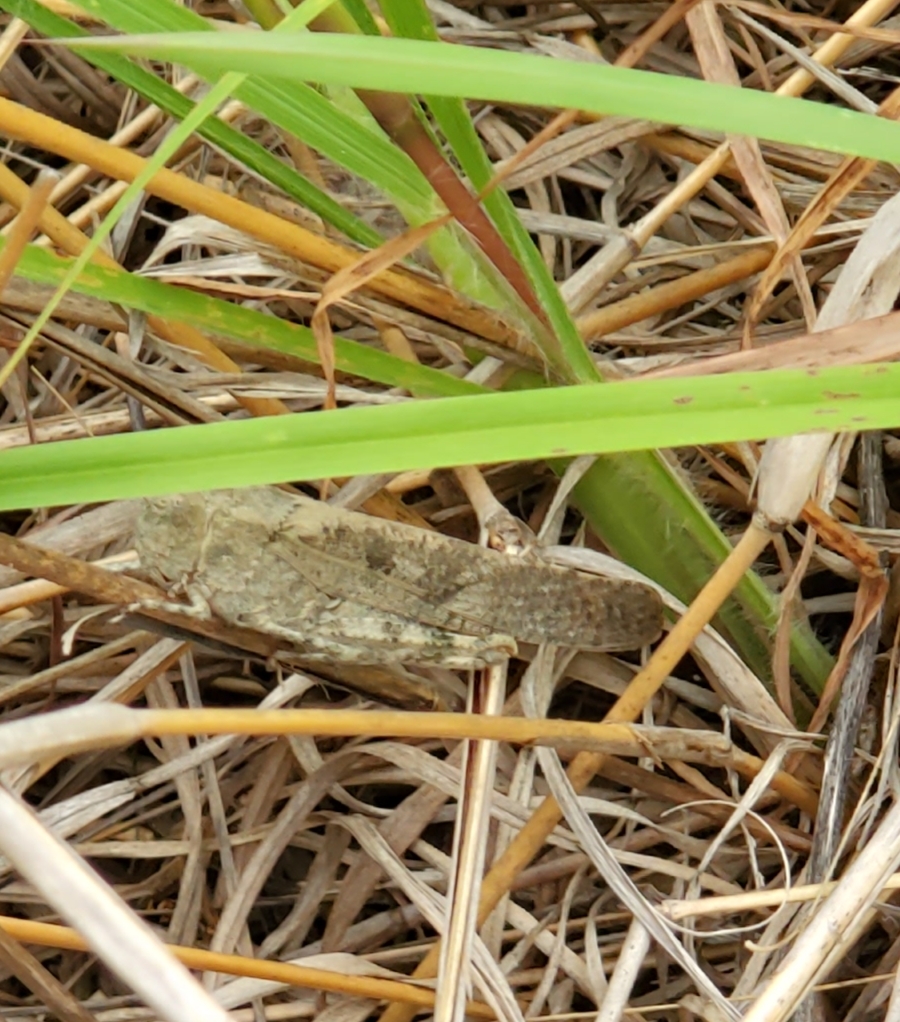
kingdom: Animalia
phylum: Arthropoda
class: Insecta
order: Orthoptera
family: Acrididae
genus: Dissosteira
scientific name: Dissosteira carolina
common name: Carolina grasshopper
